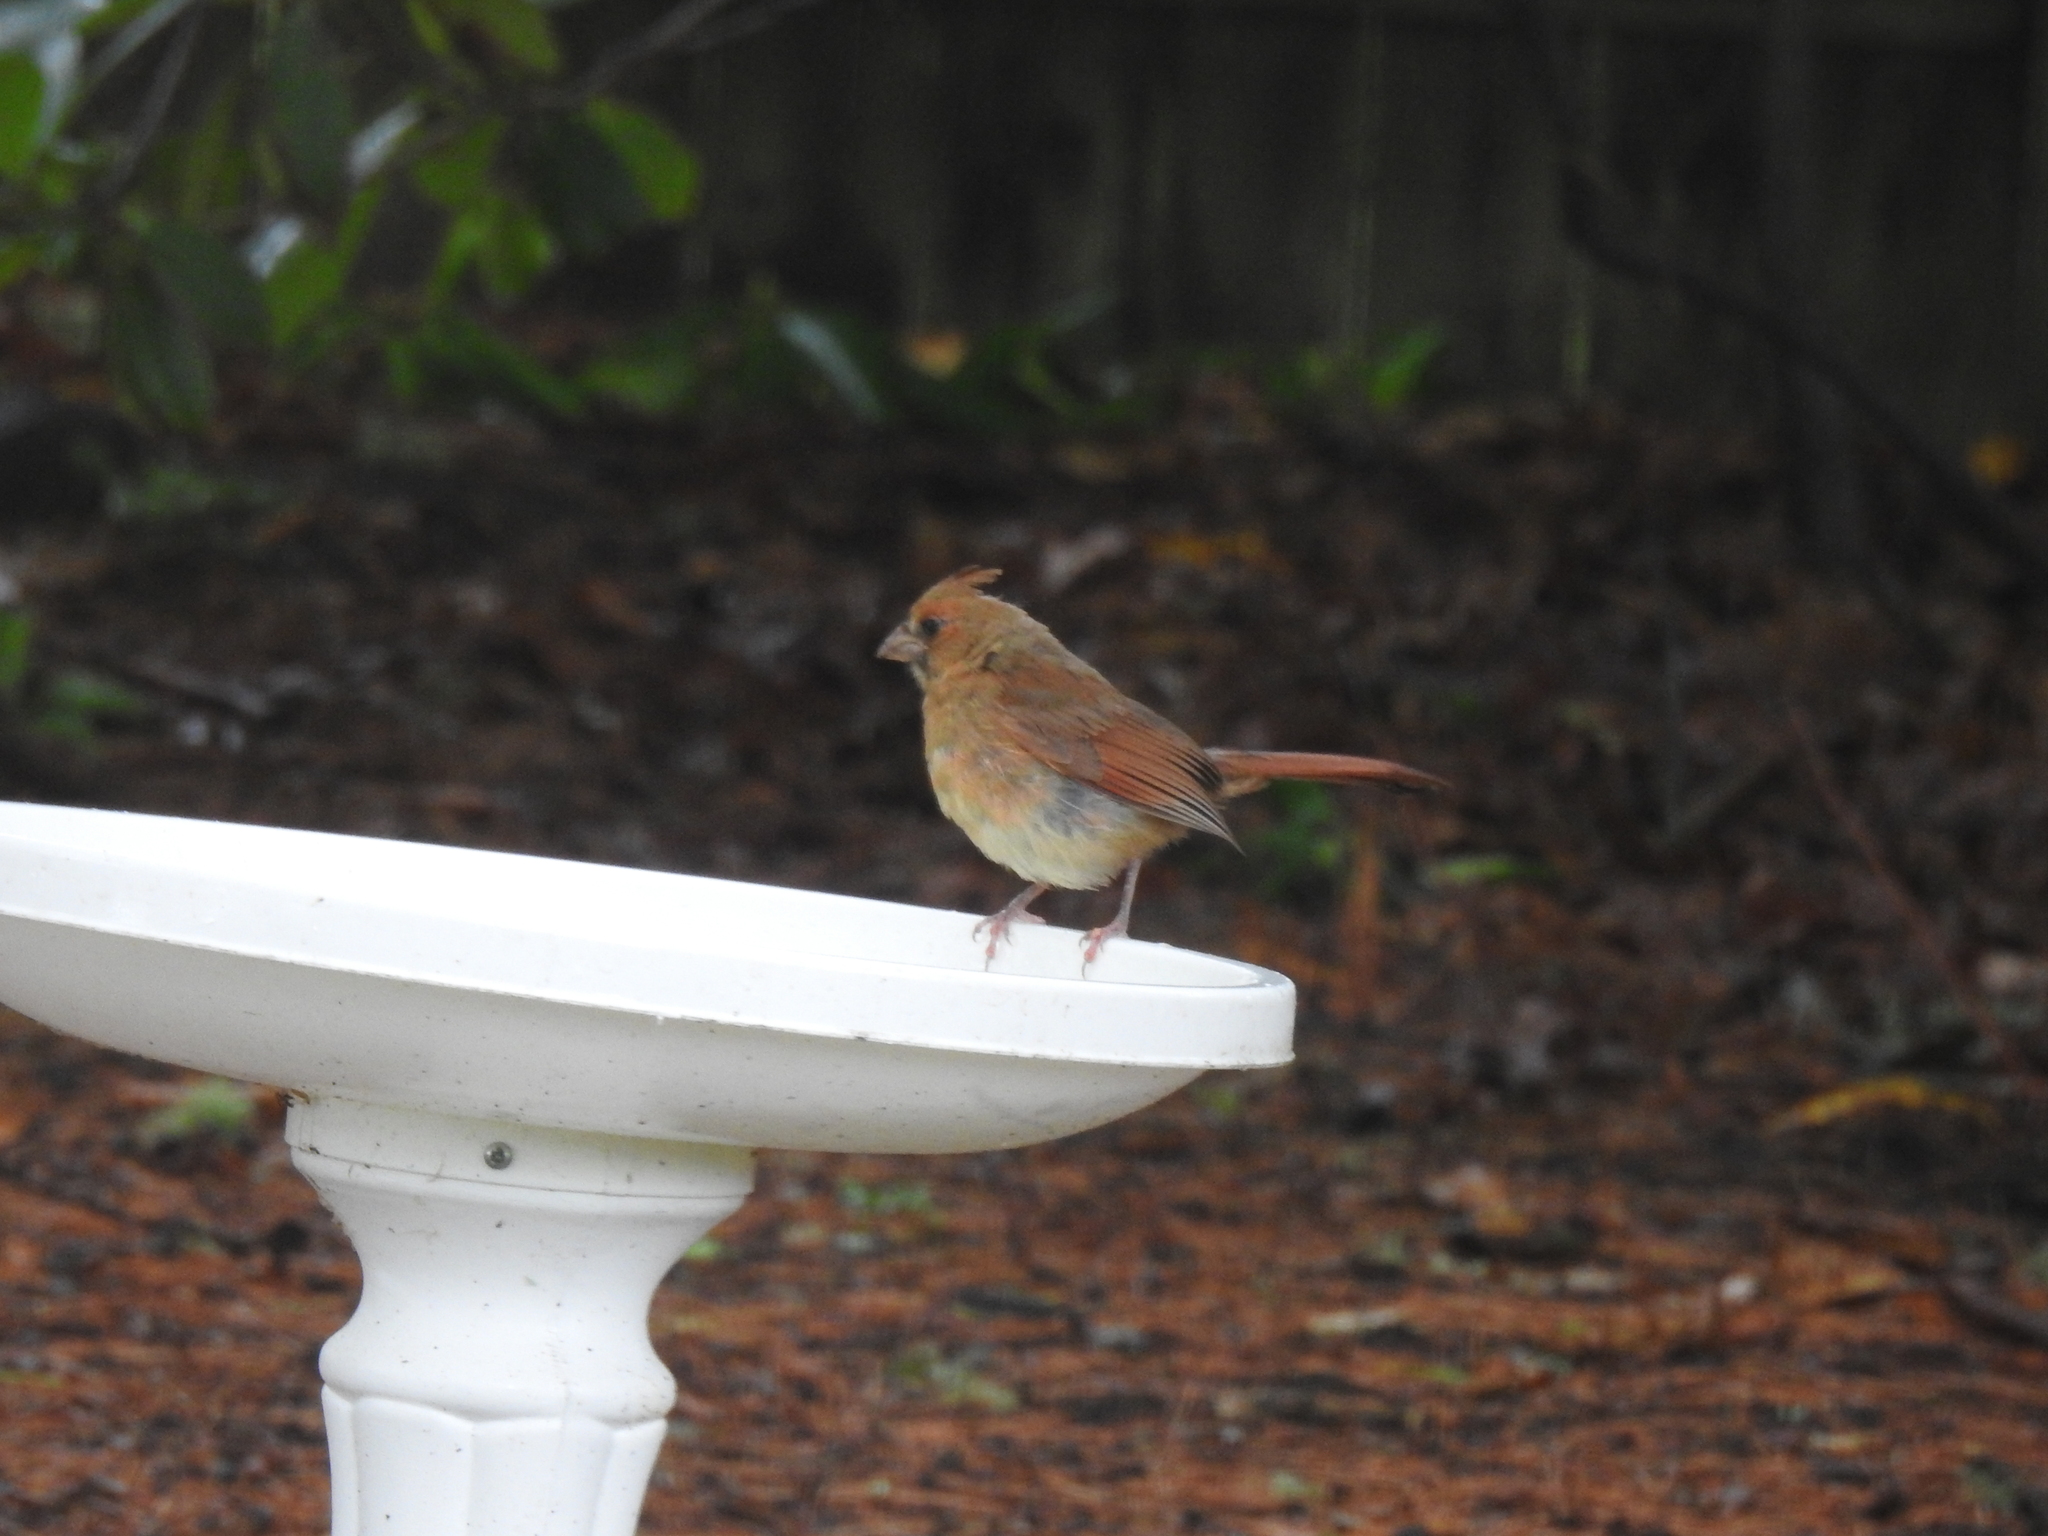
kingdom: Animalia
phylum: Chordata
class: Aves
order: Passeriformes
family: Cardinalidae
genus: Cardinalis
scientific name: Cardinalis cardinalis
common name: Northern cardinal
